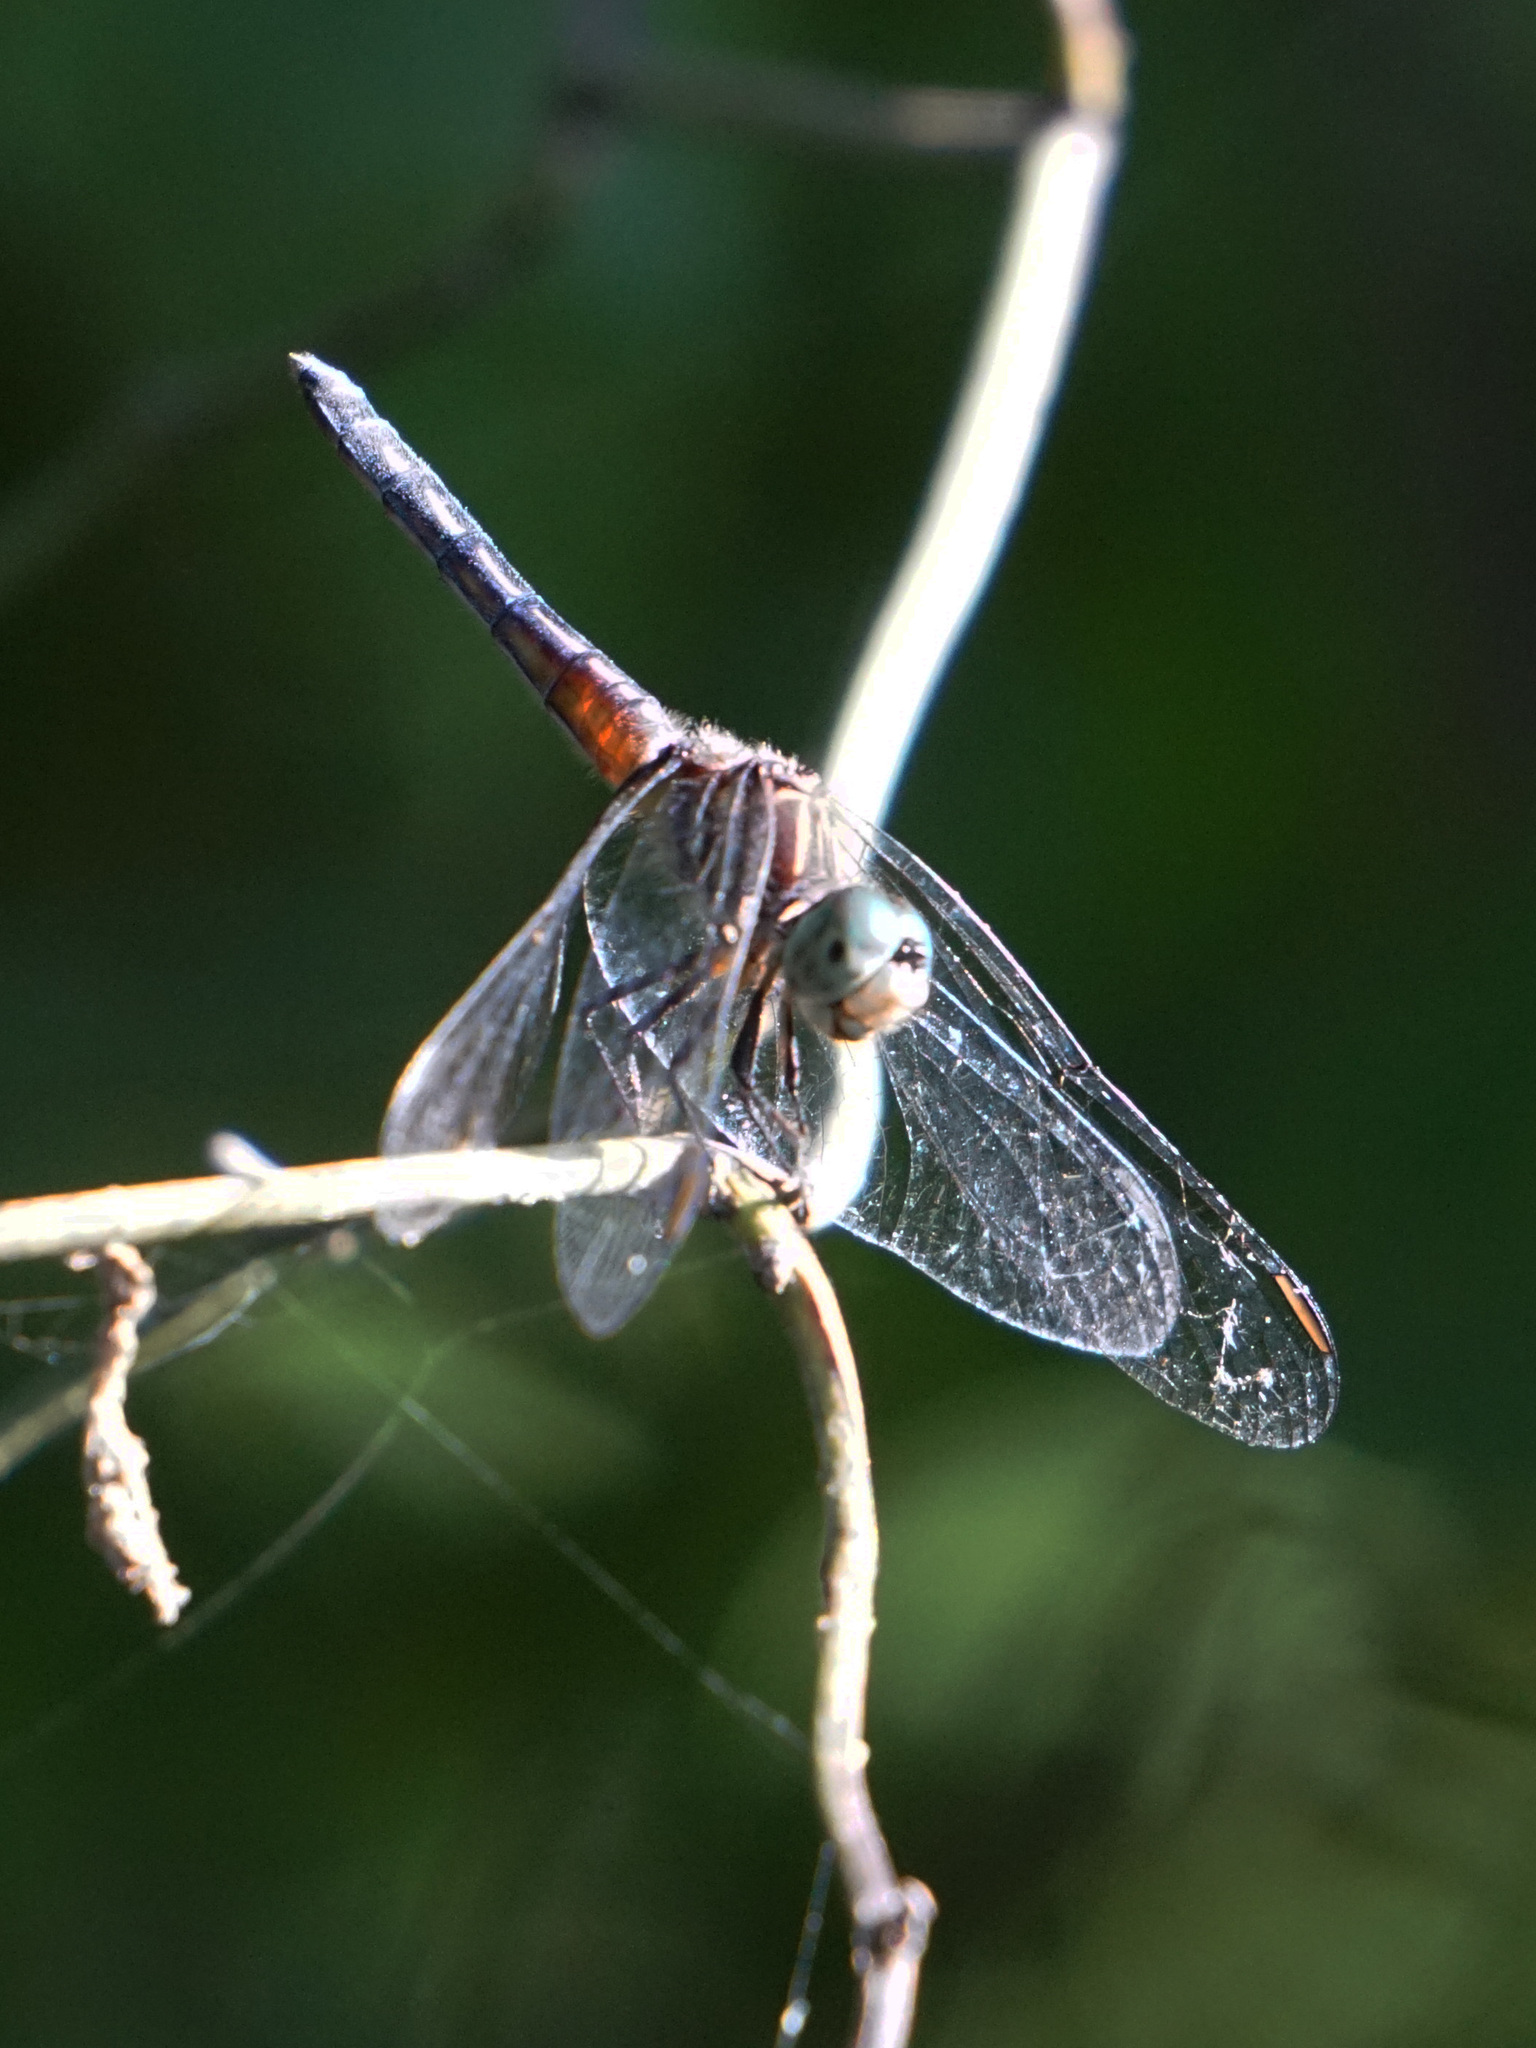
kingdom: Animalia
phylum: Arthropoda
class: Insecta
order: Odonata
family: Libellulidae
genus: Pachydiplax
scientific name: Pachydiplax longipennis
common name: Blue dasher
